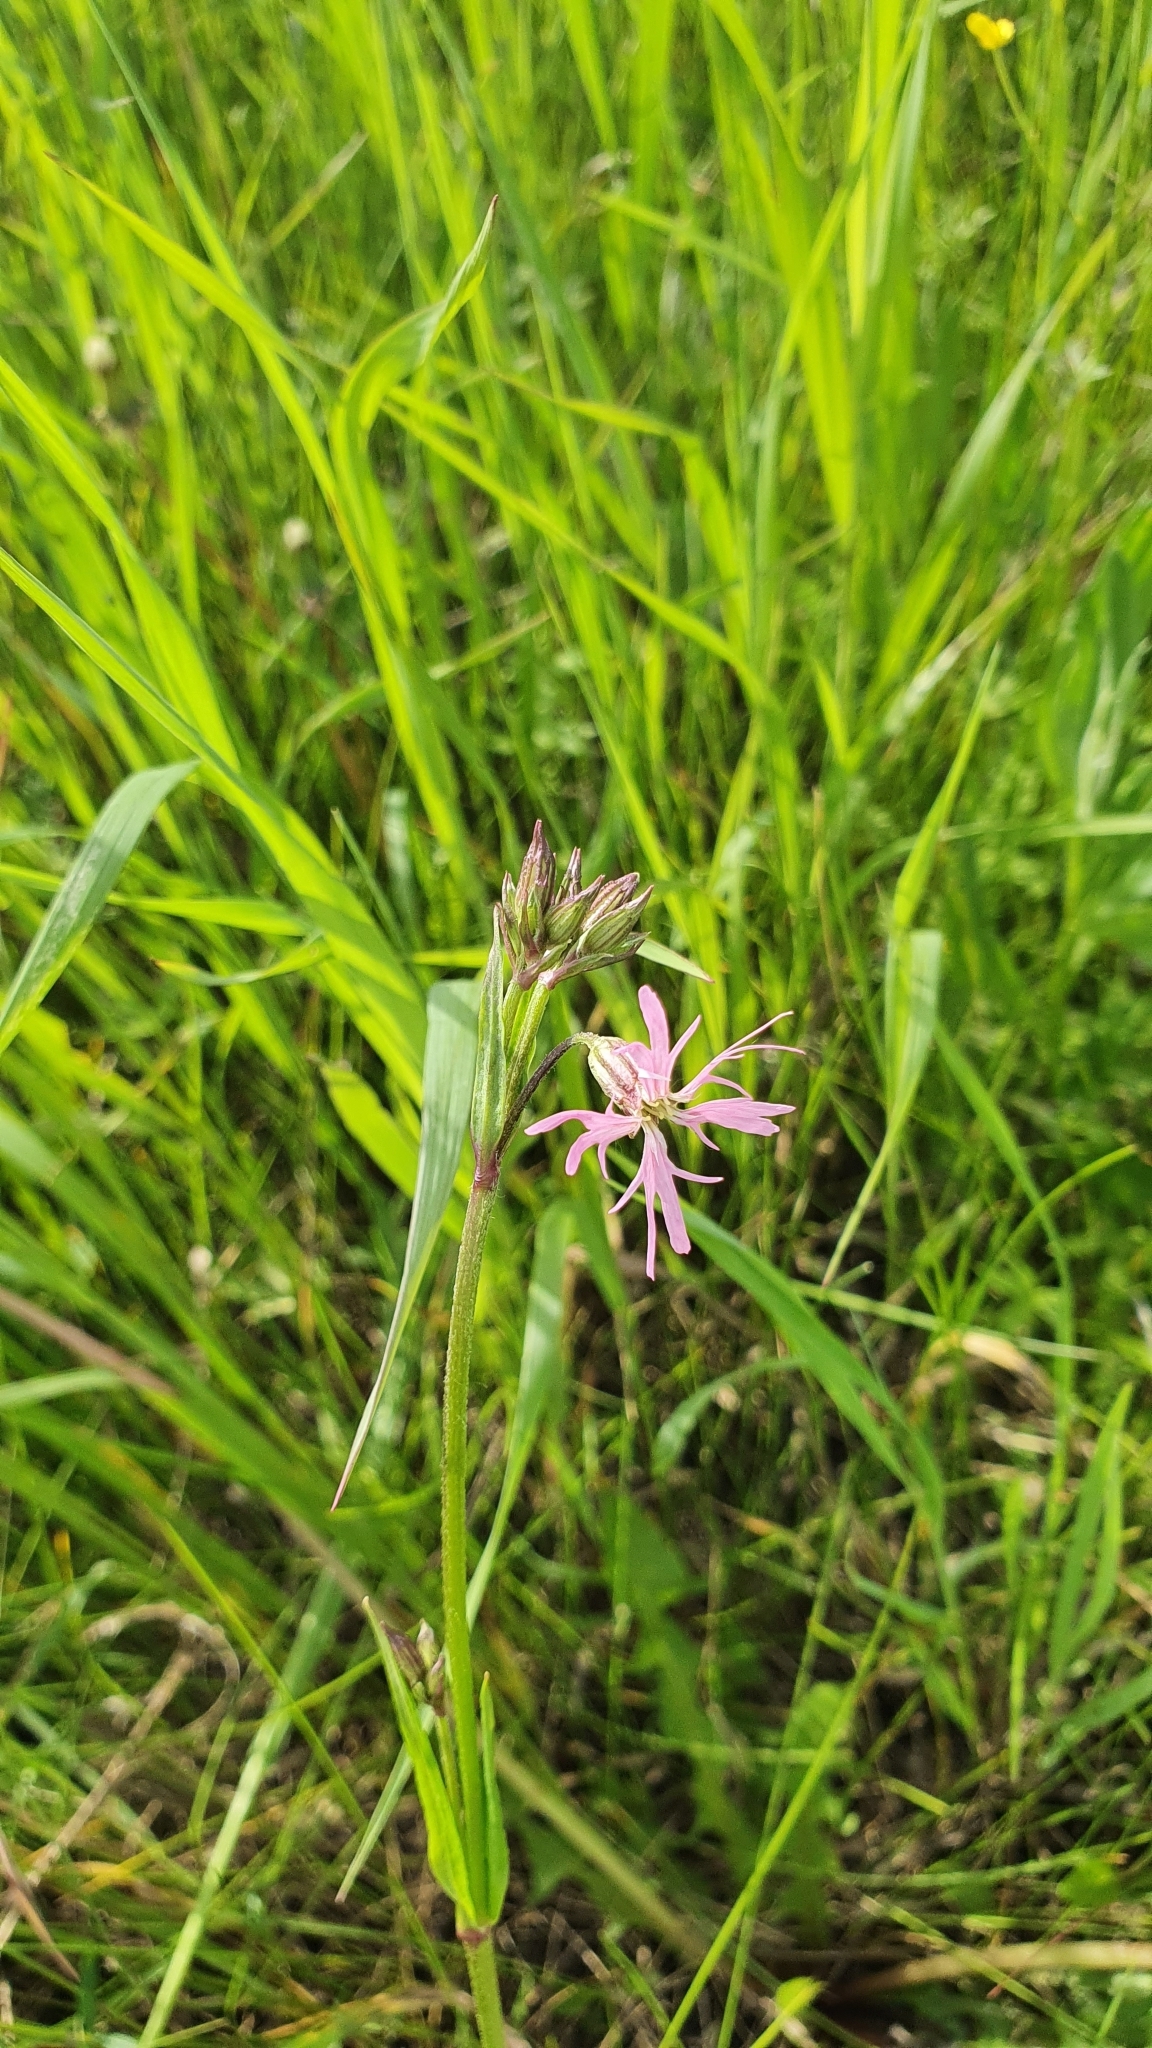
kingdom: Plantae
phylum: Tracheophyta
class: Magnoliopsida
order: Caryophyllales
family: Caryophyllaceae
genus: Silene
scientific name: Silene flos-cuculi
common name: Ragged-robin
